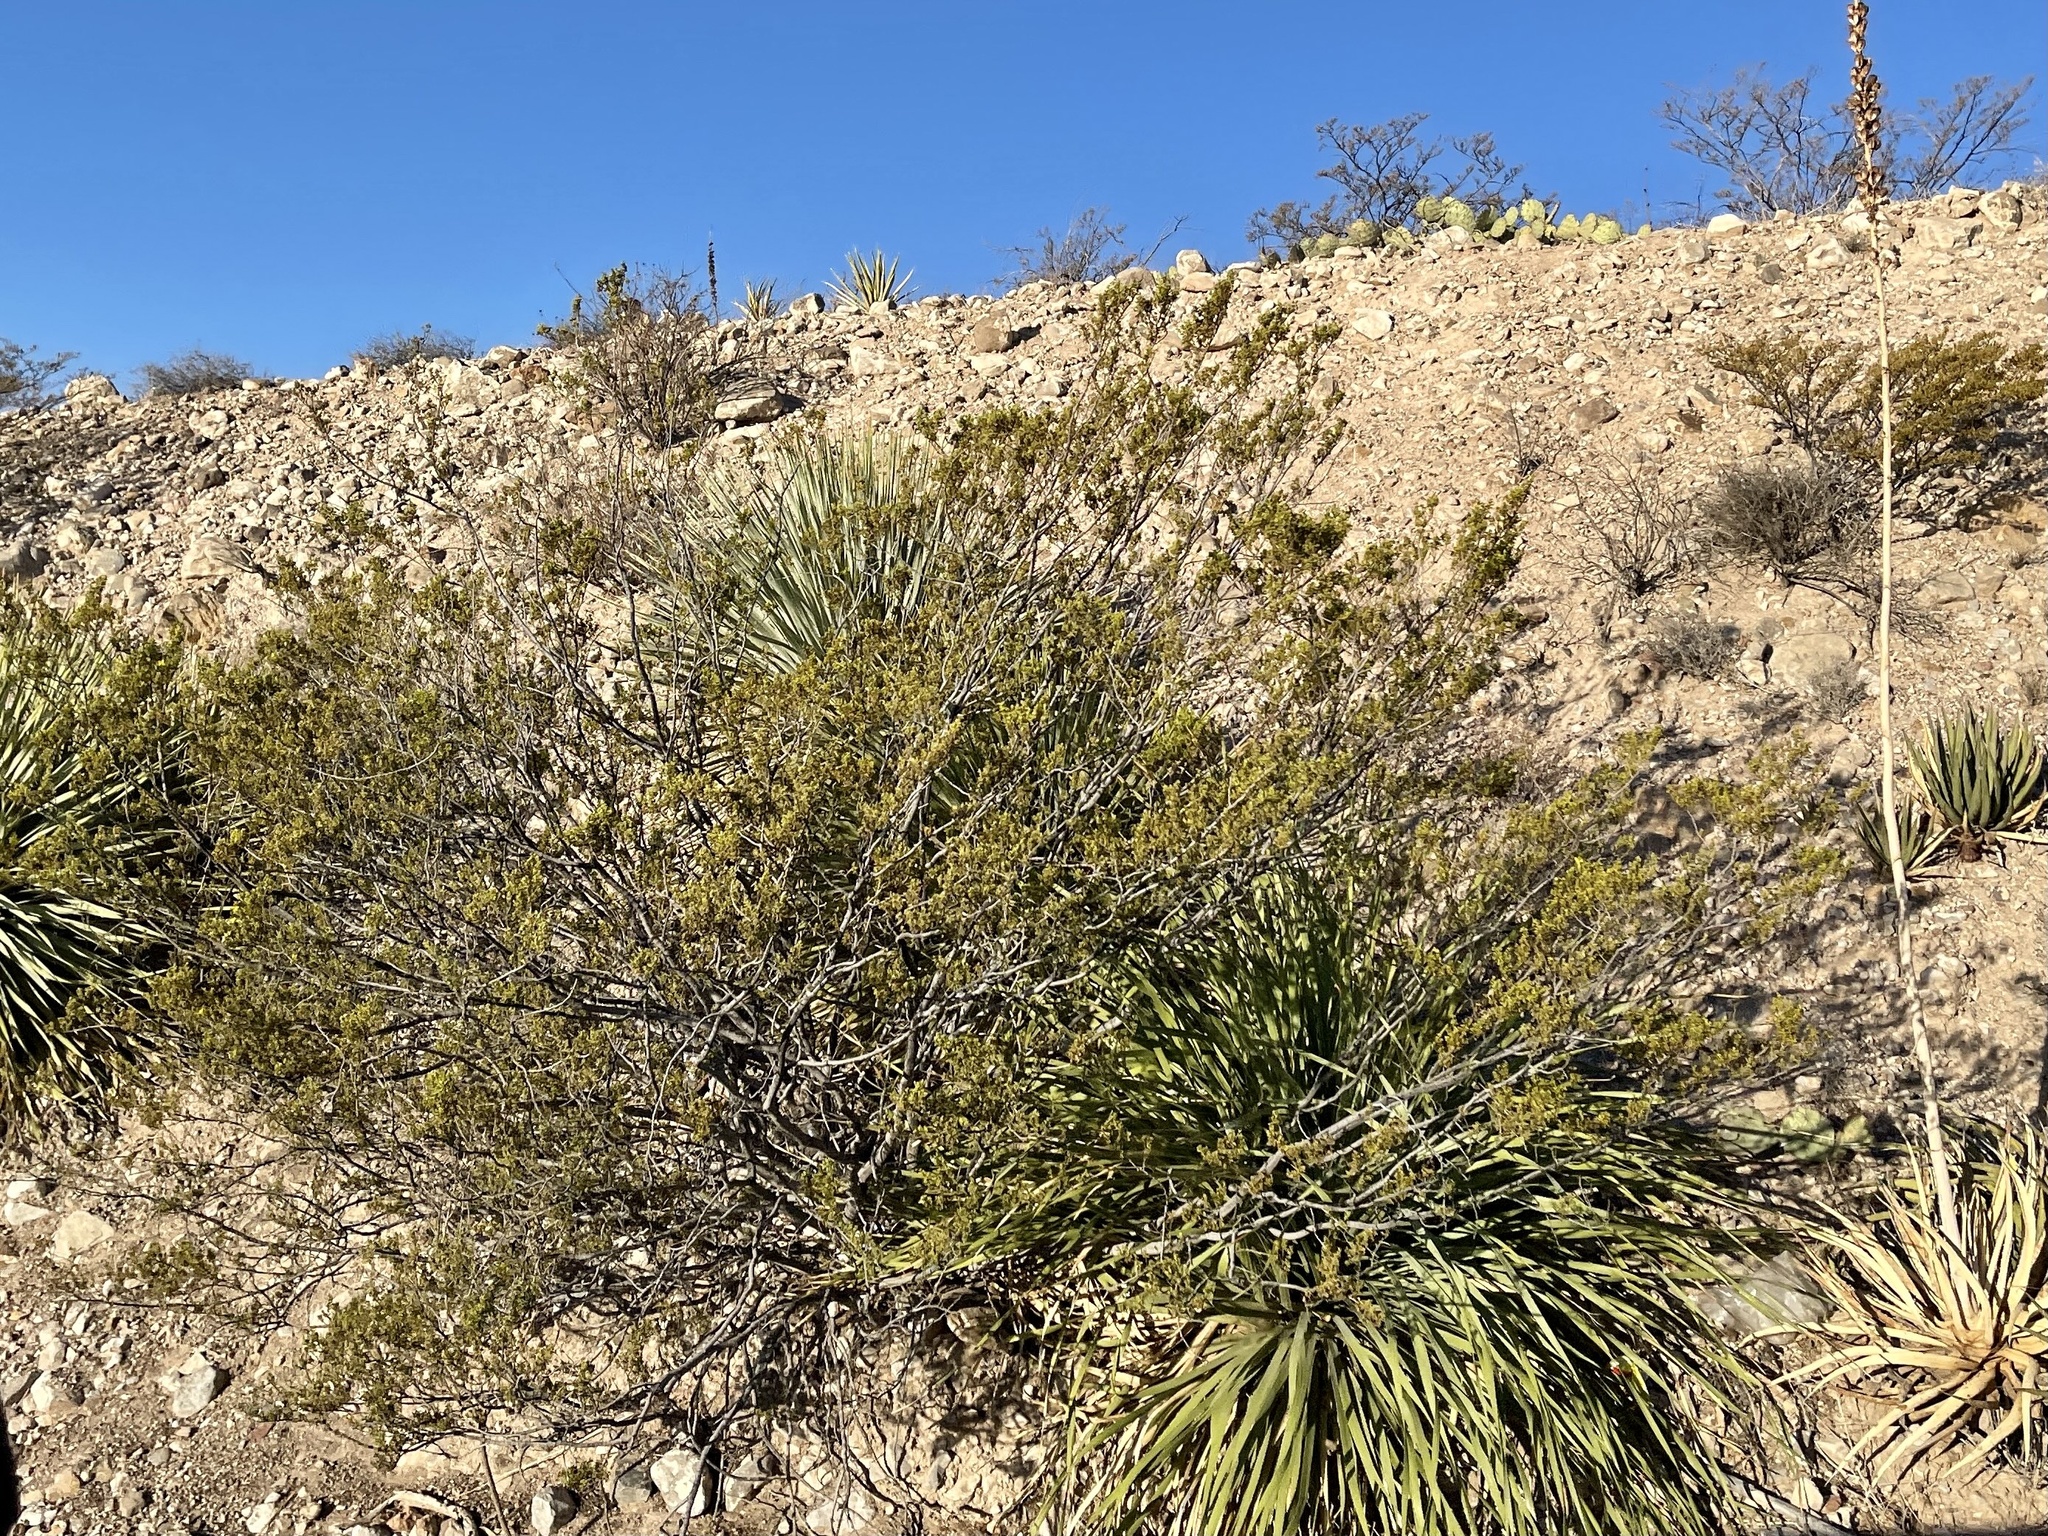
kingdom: Plantae
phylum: Tracheophyta
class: Magnoliopsida
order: Zygophyllales
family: Zygophyllaceae
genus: Larrea
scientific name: Larrea tridentata
